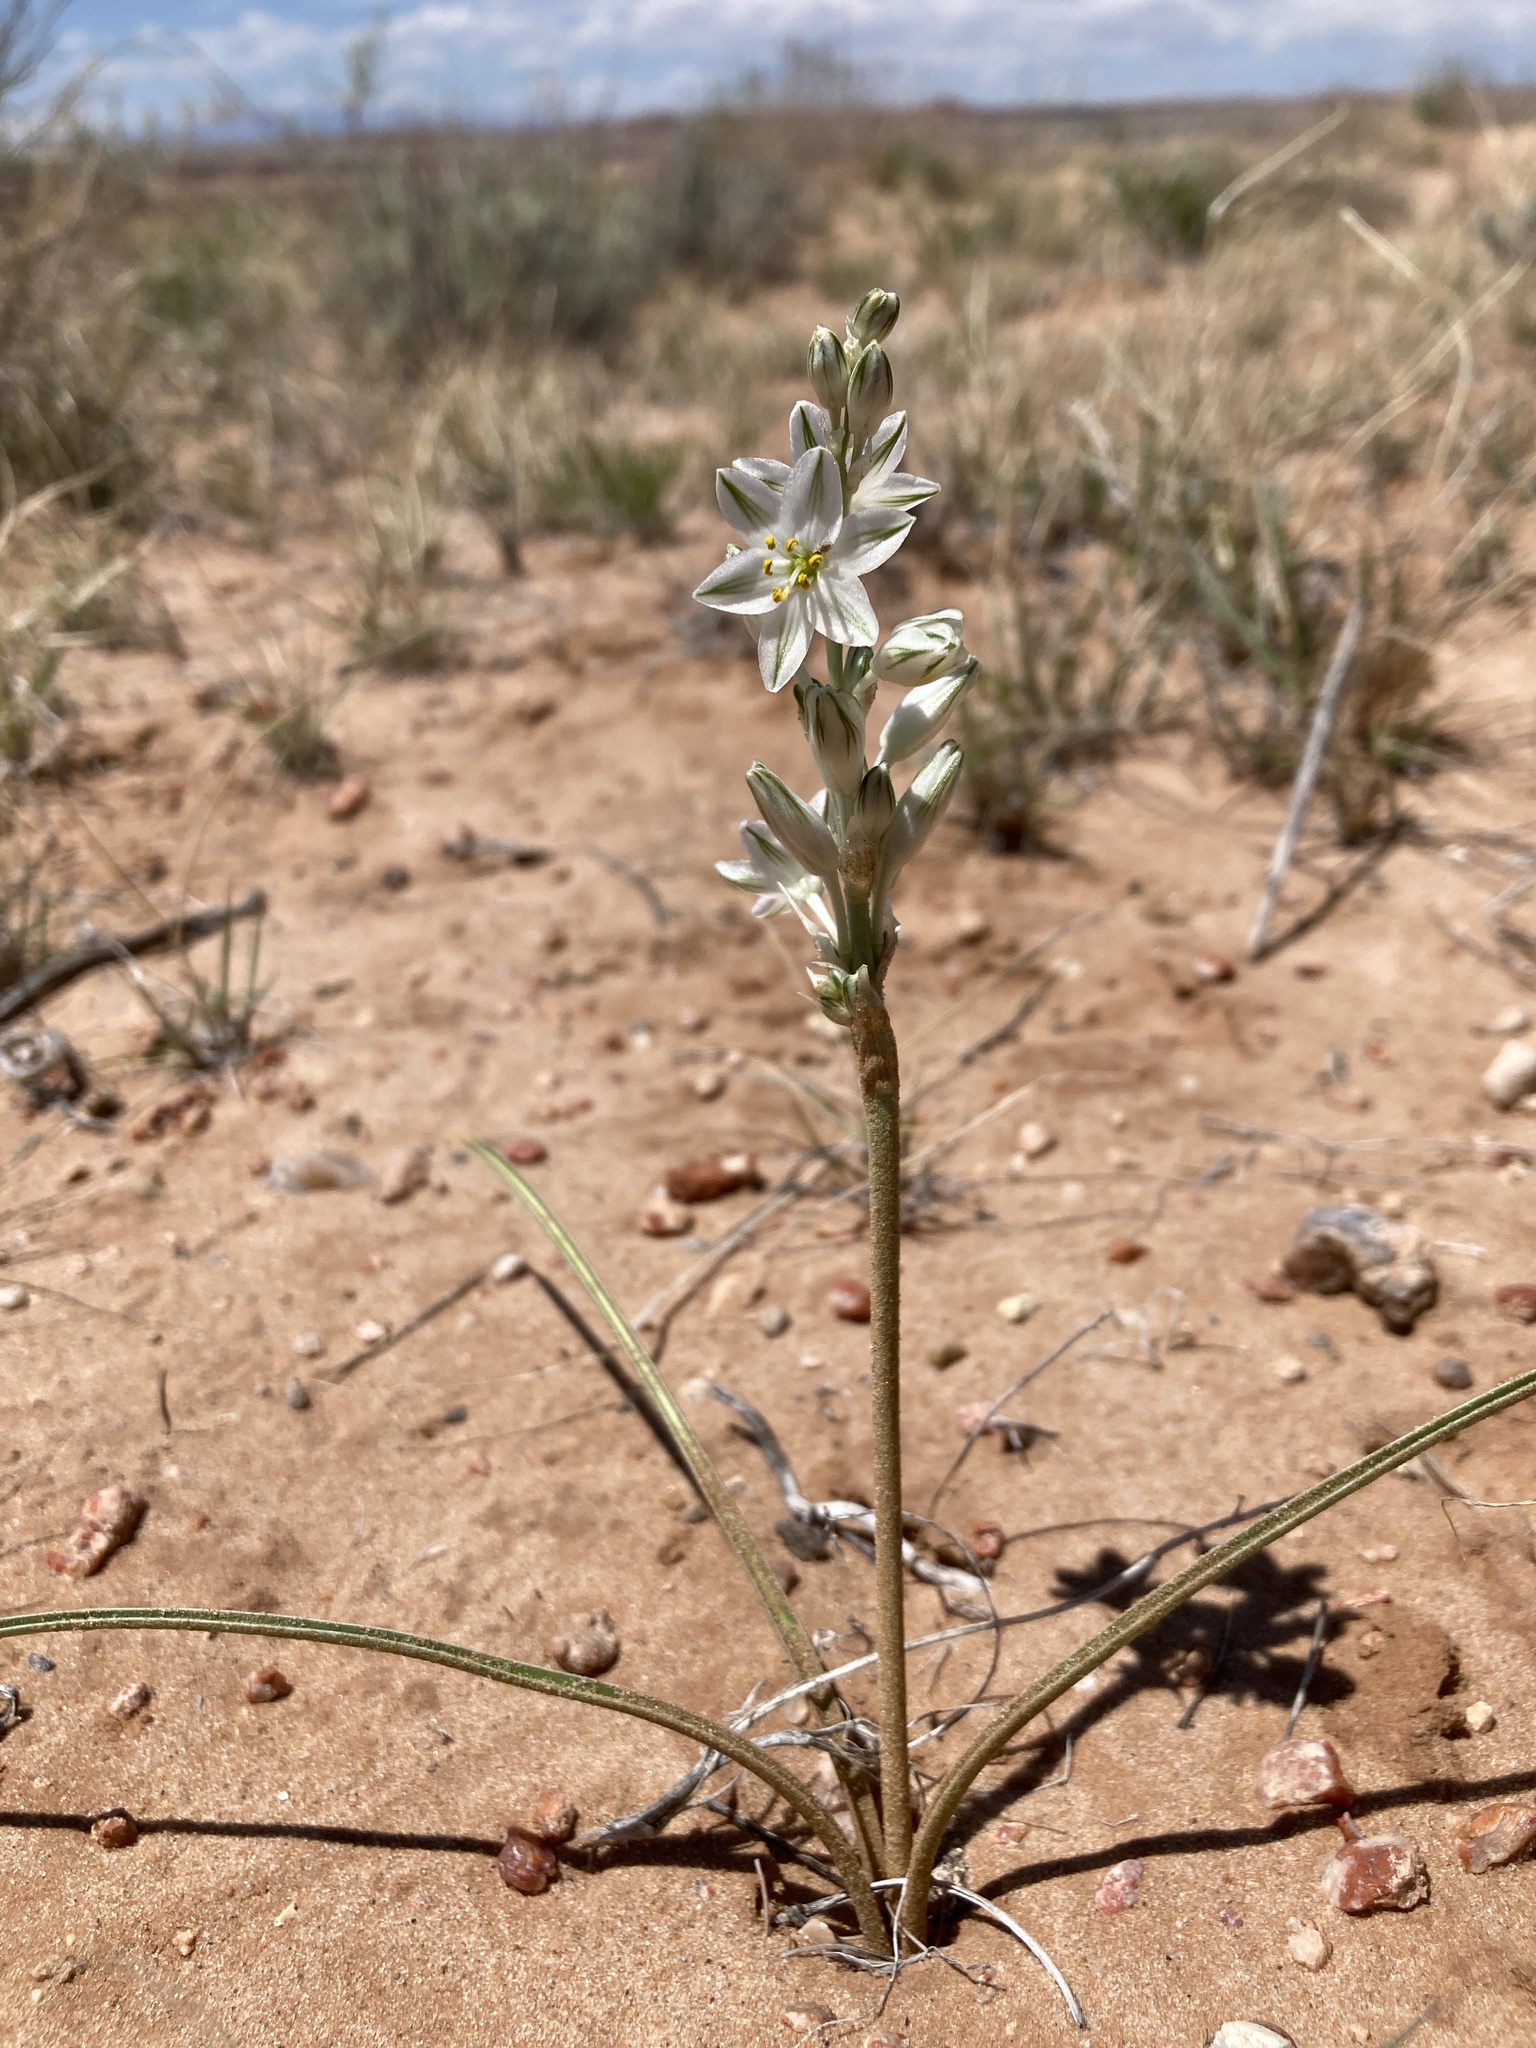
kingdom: Plantae
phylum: Tracheophyta
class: Liliopsida
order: Asparagales
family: Asparagaceae
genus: Eremocrinum
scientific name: Eremocrinum albomarginatum
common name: Sand-lily
